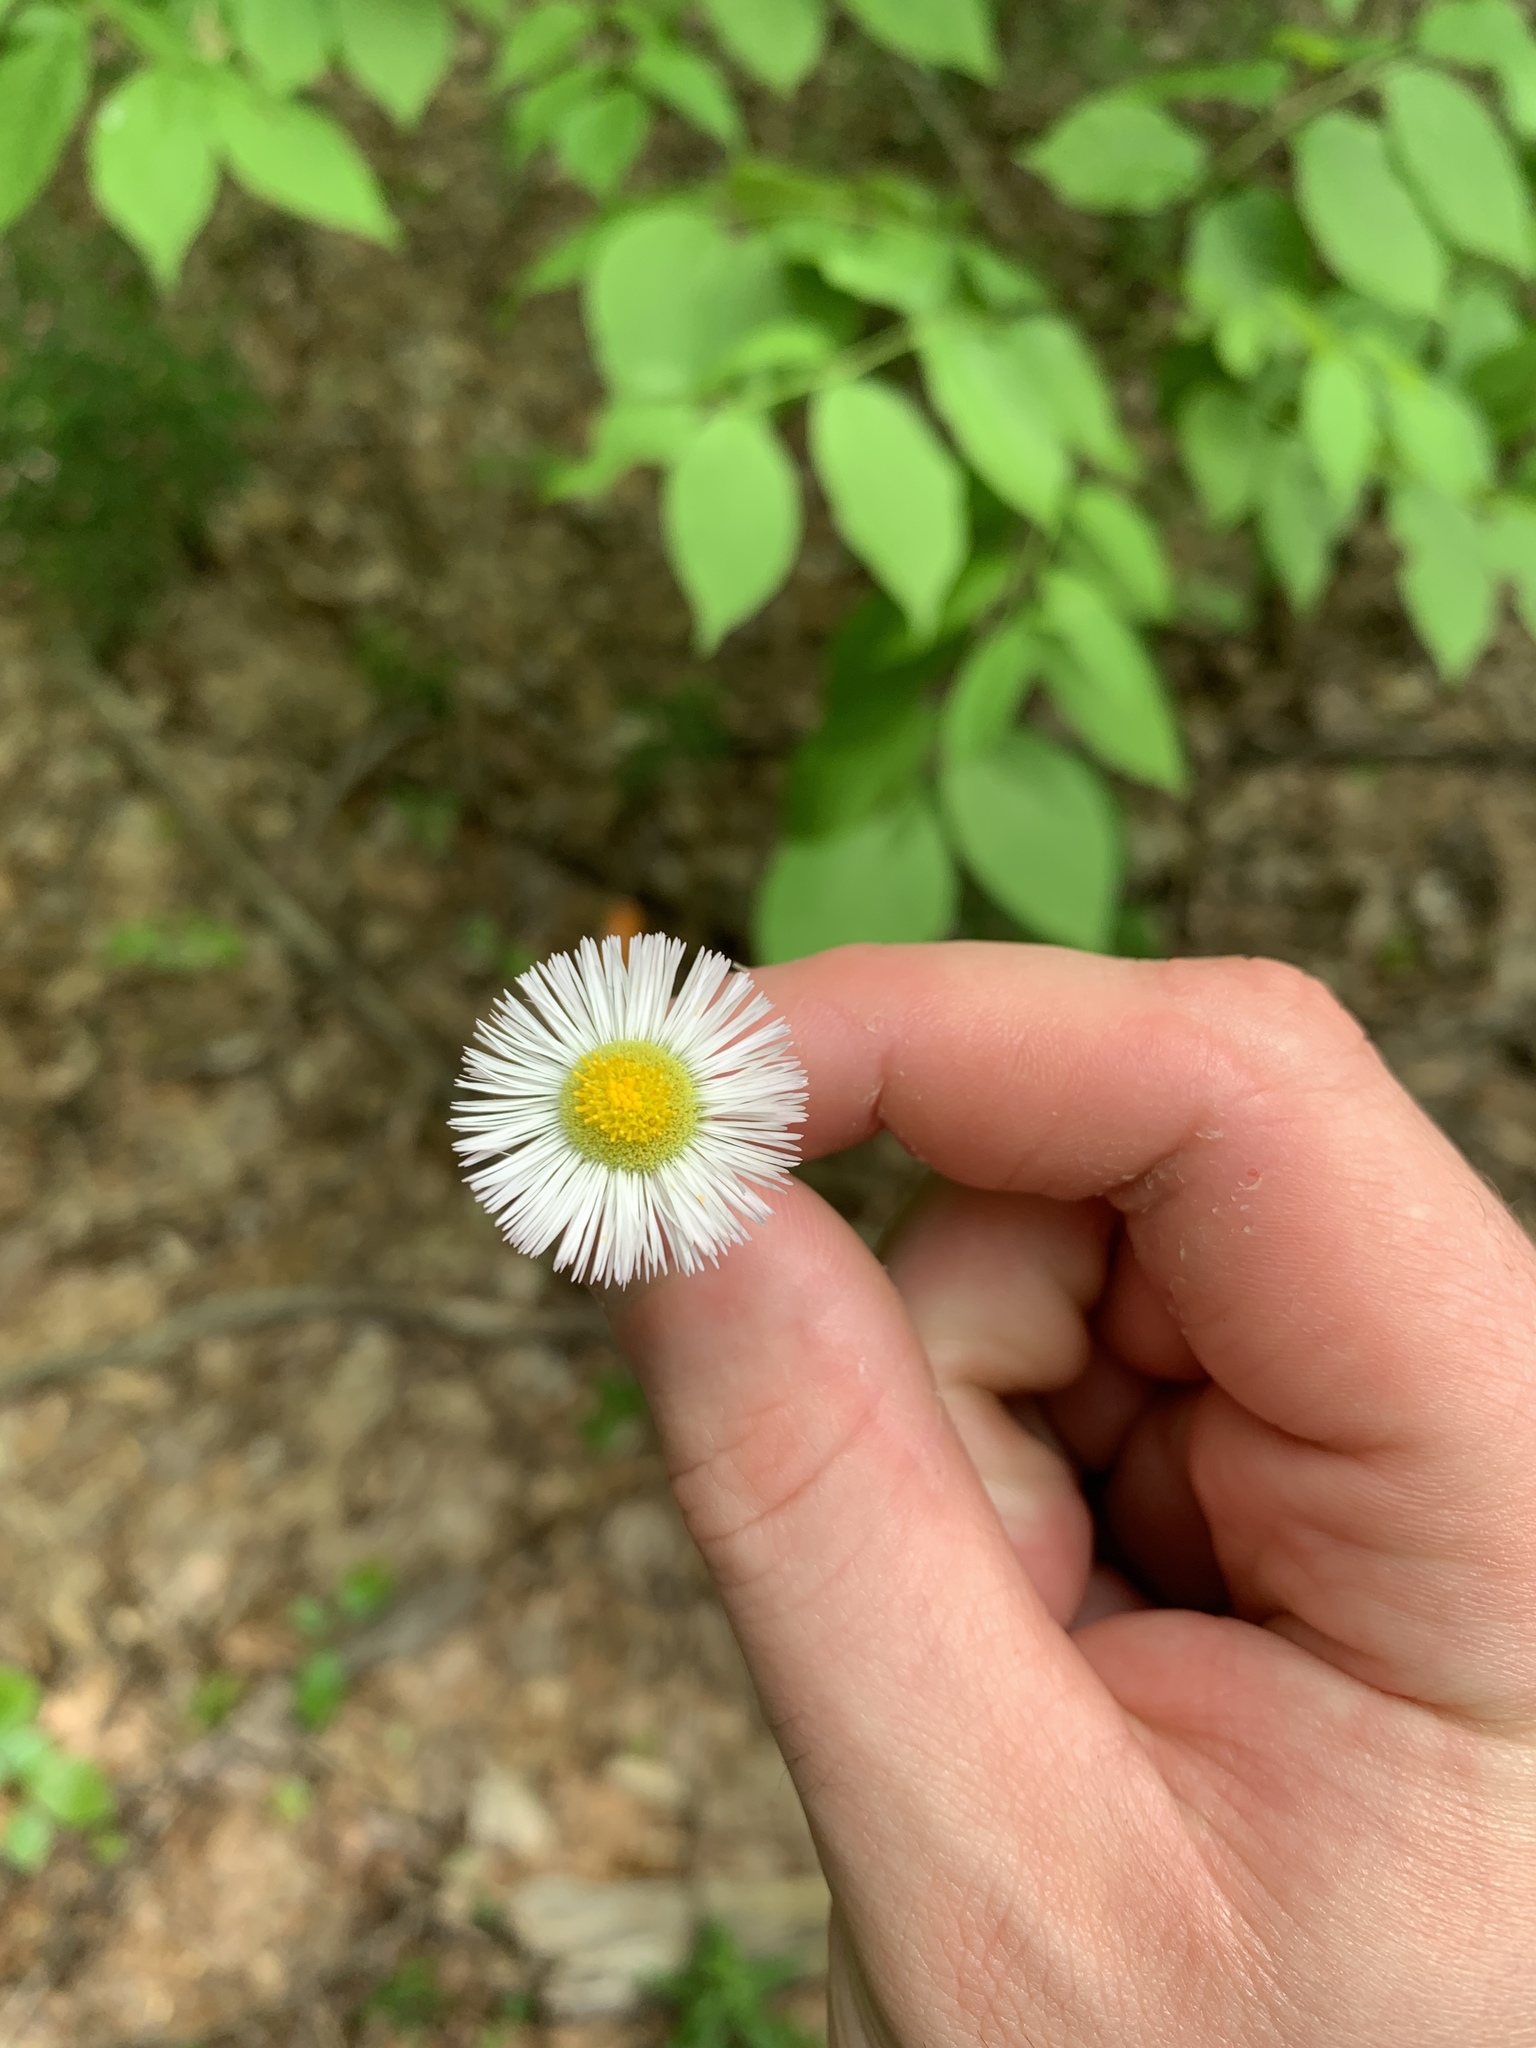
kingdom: Plantae
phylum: Tracheophyta
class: Magnoliopsida
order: Asterales
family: Asteraceae
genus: Erigeron
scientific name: Erigeron philadelphicus
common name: Robin's-plantain
